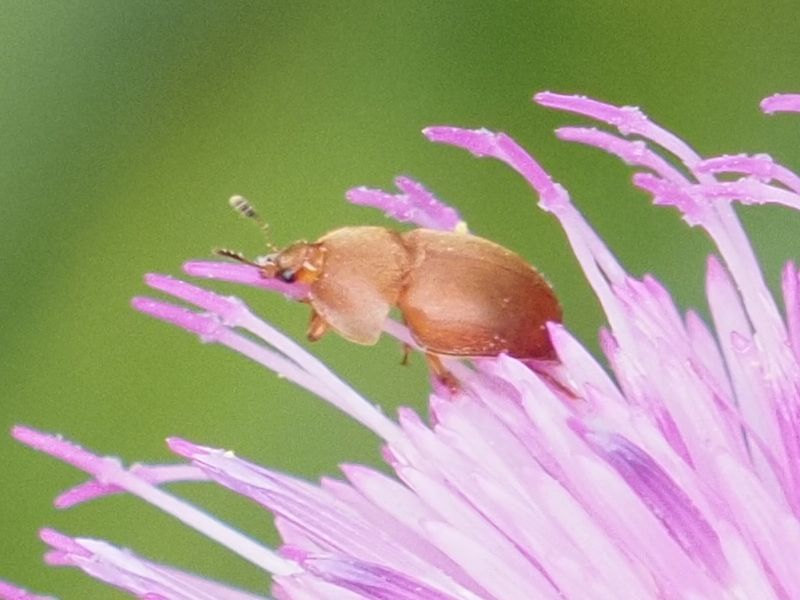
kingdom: Animalia
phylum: Arthropoda
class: Insecta
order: Coleoptera
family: Nitidulidae
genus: Cychramus
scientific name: Cychramus luteus
